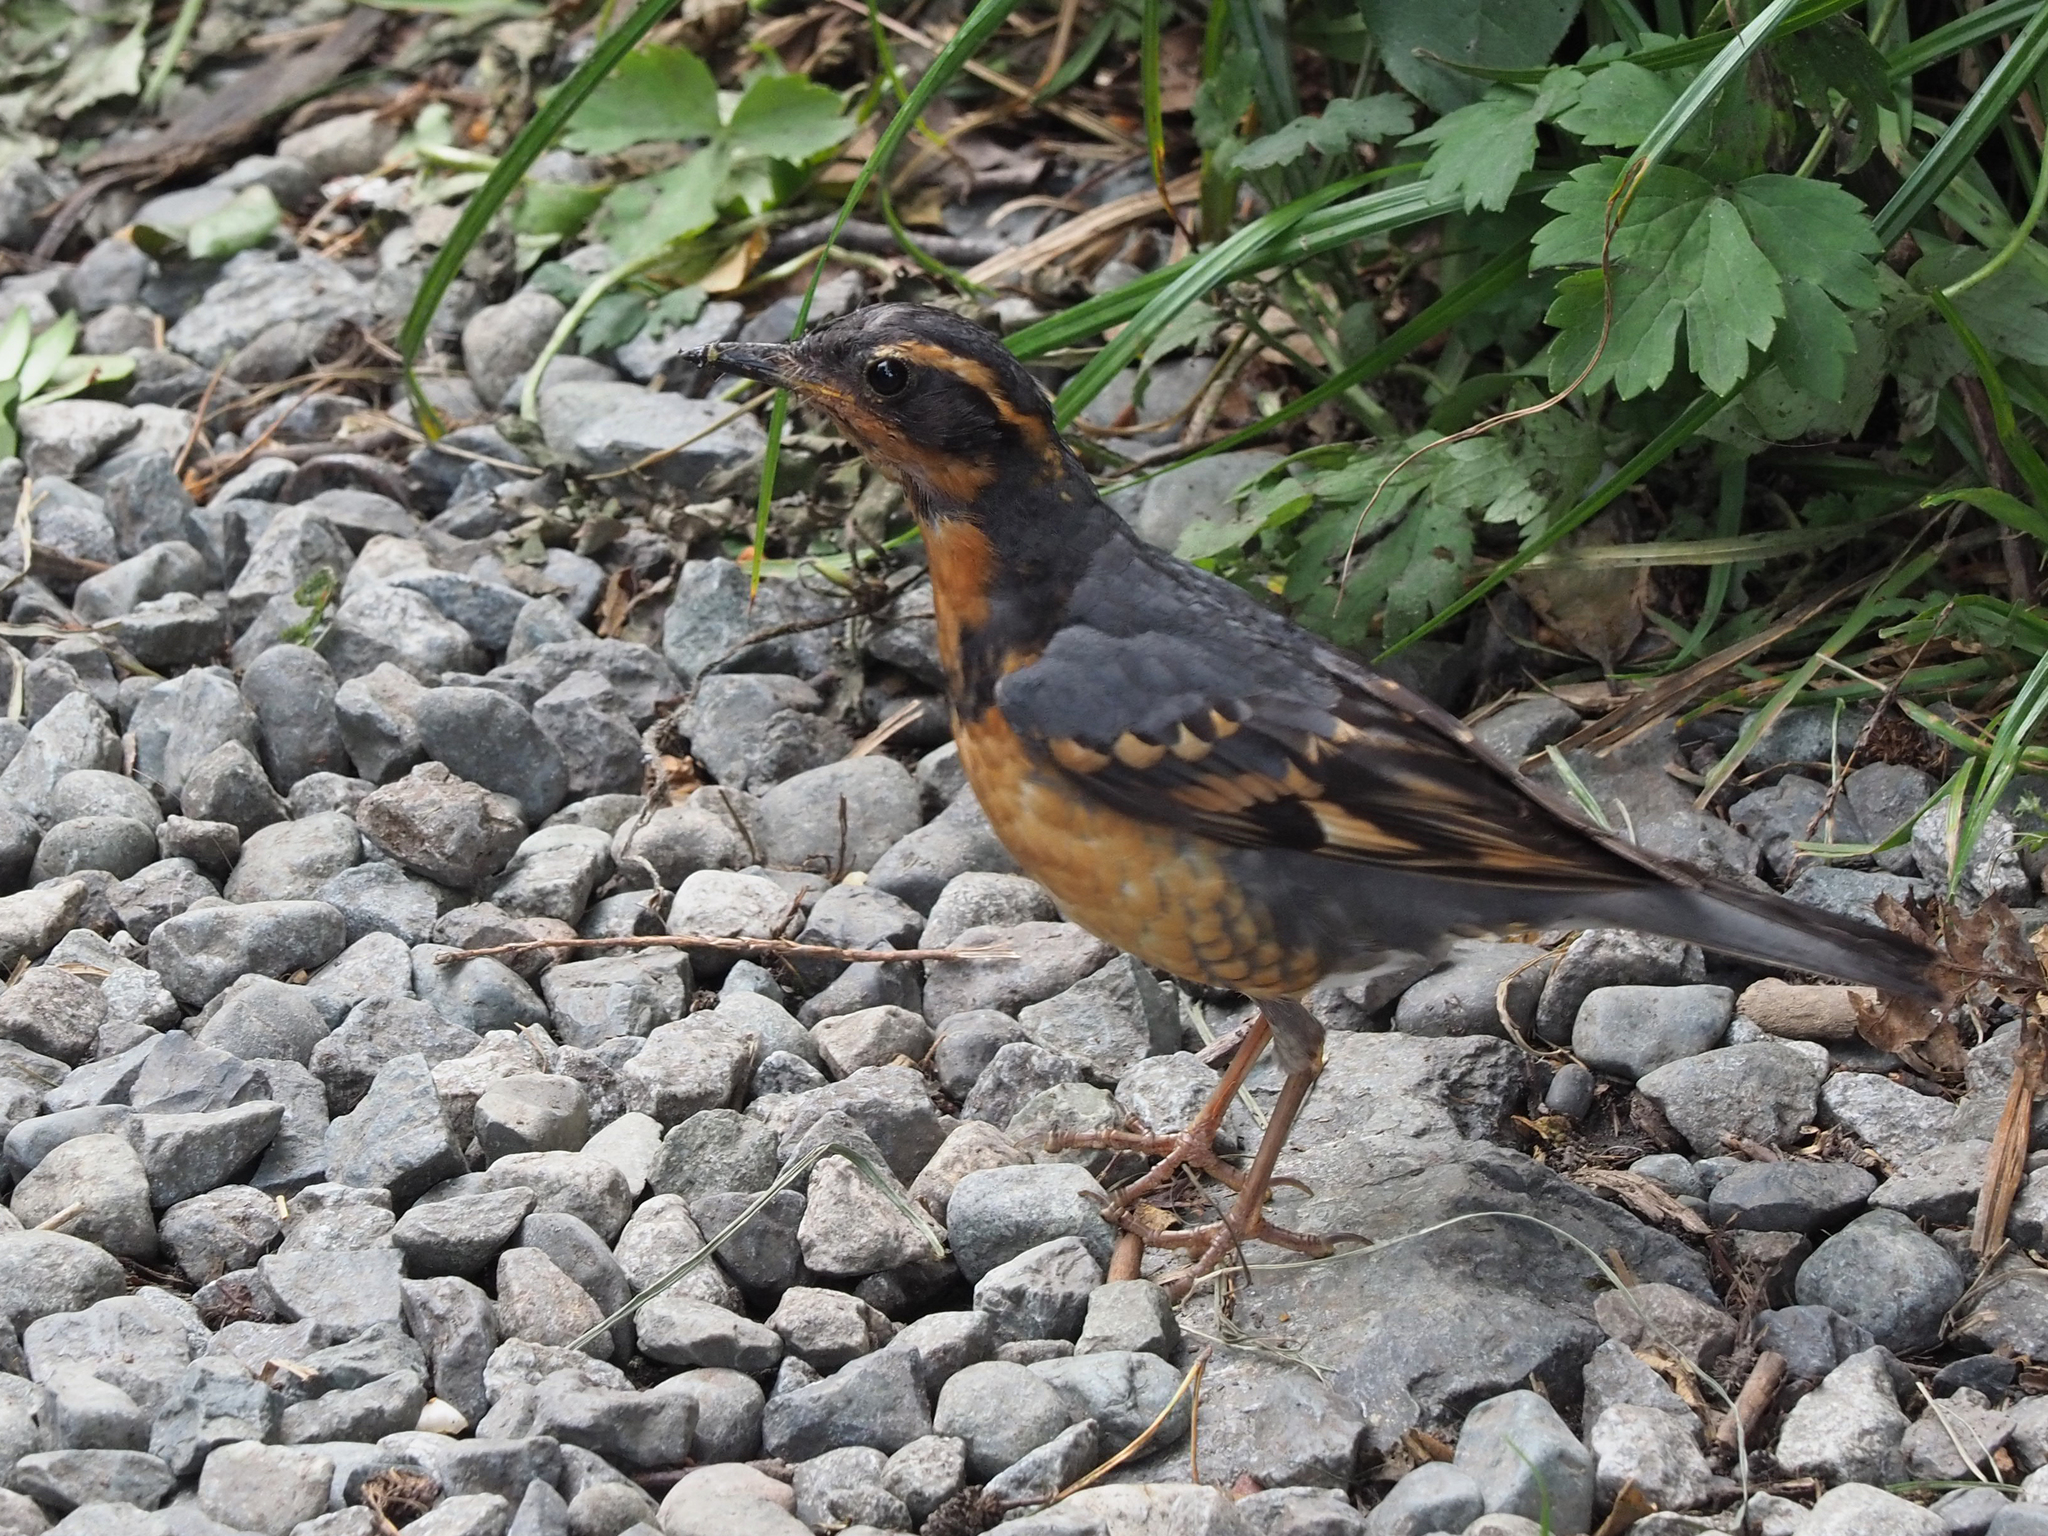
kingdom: Animalia
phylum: Chordata
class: Aves
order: Passeriformes
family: Turdidae
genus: Ixoreus
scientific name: Ixoreus naevius
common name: Varied thrush
